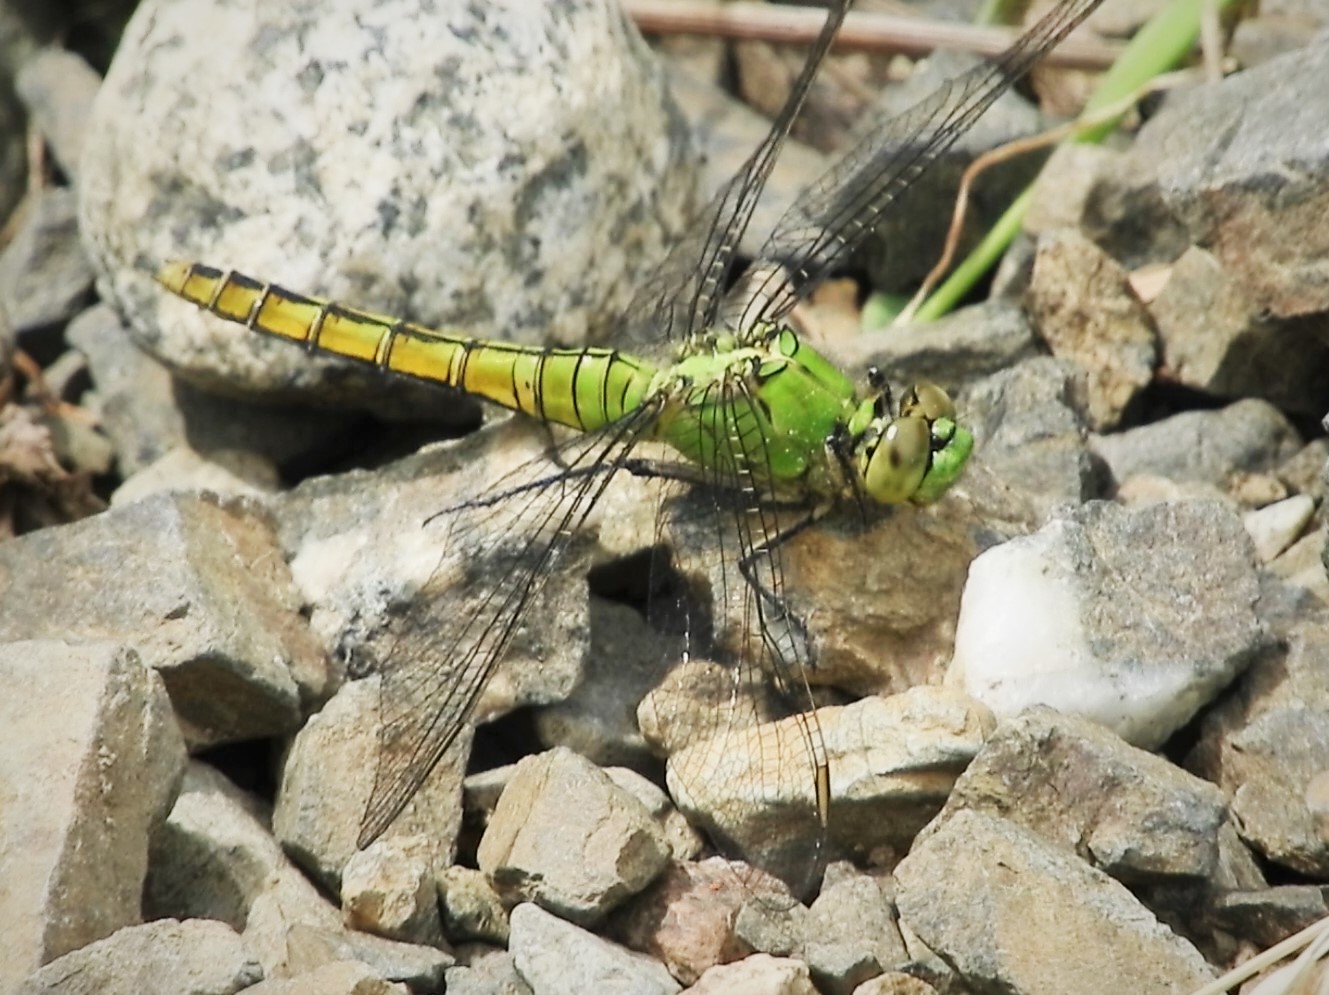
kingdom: Animalia
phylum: Arthropoda
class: Insecta
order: Odonata
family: Libellulidae
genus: Erythemis
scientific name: Erythemis collocata
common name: Western pondhawk
